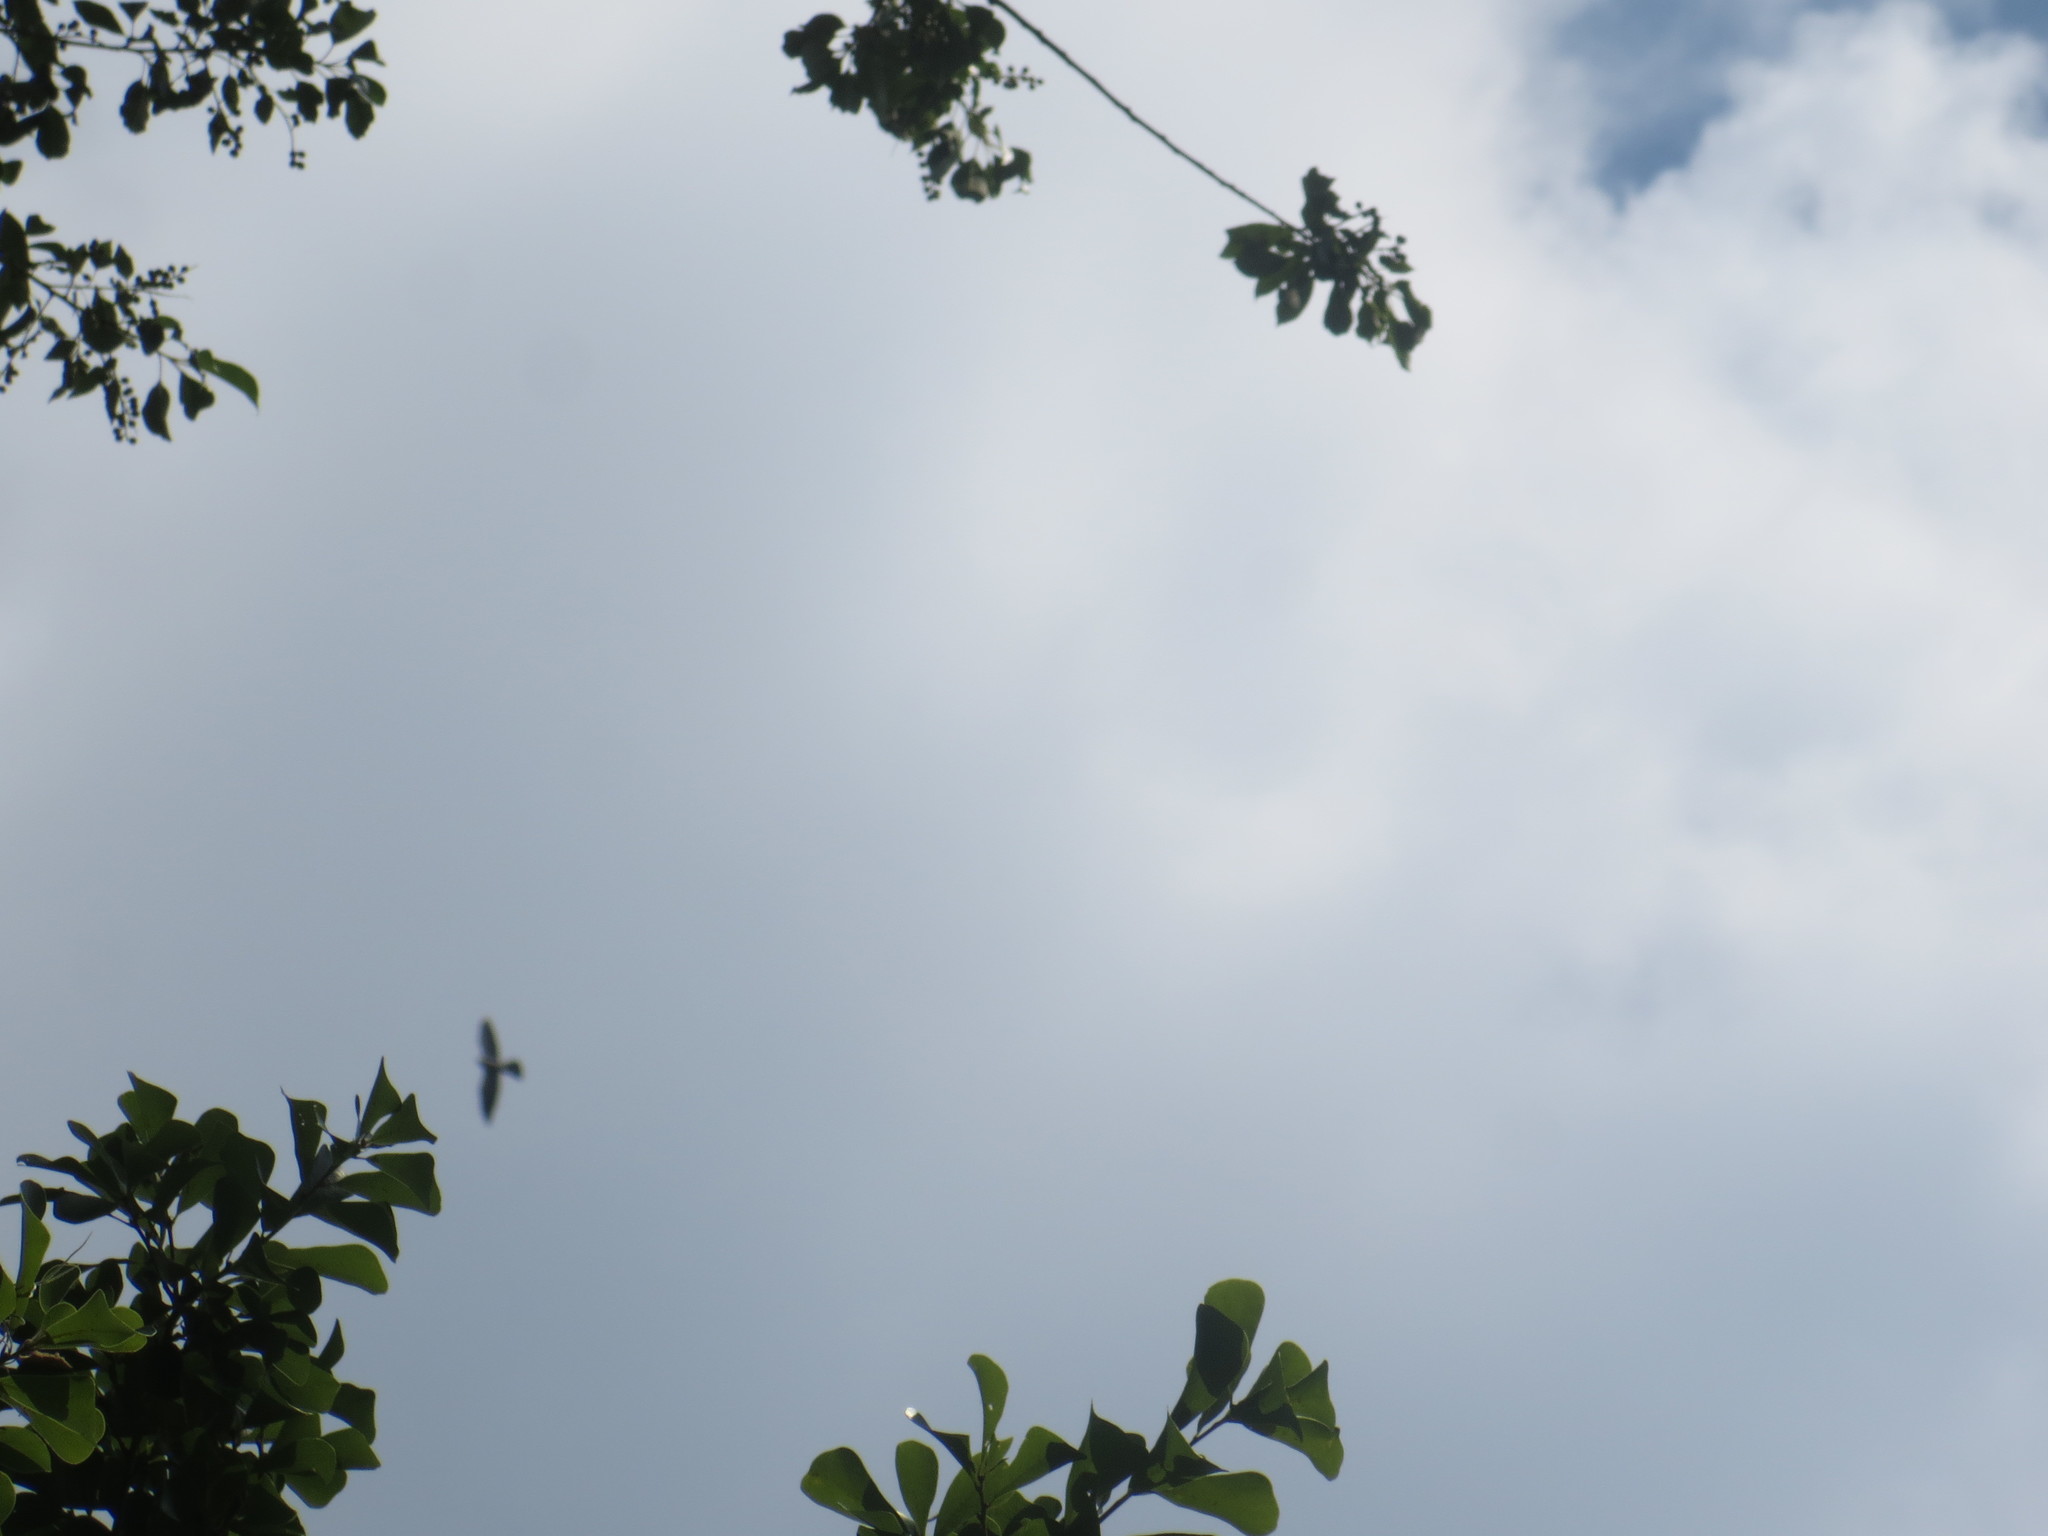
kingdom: Animalia
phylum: Chordata
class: Aves
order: Accipitriformes
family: Accipitridae
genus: Ictinia
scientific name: Ictinia mississippiensis
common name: Mississippi kite
